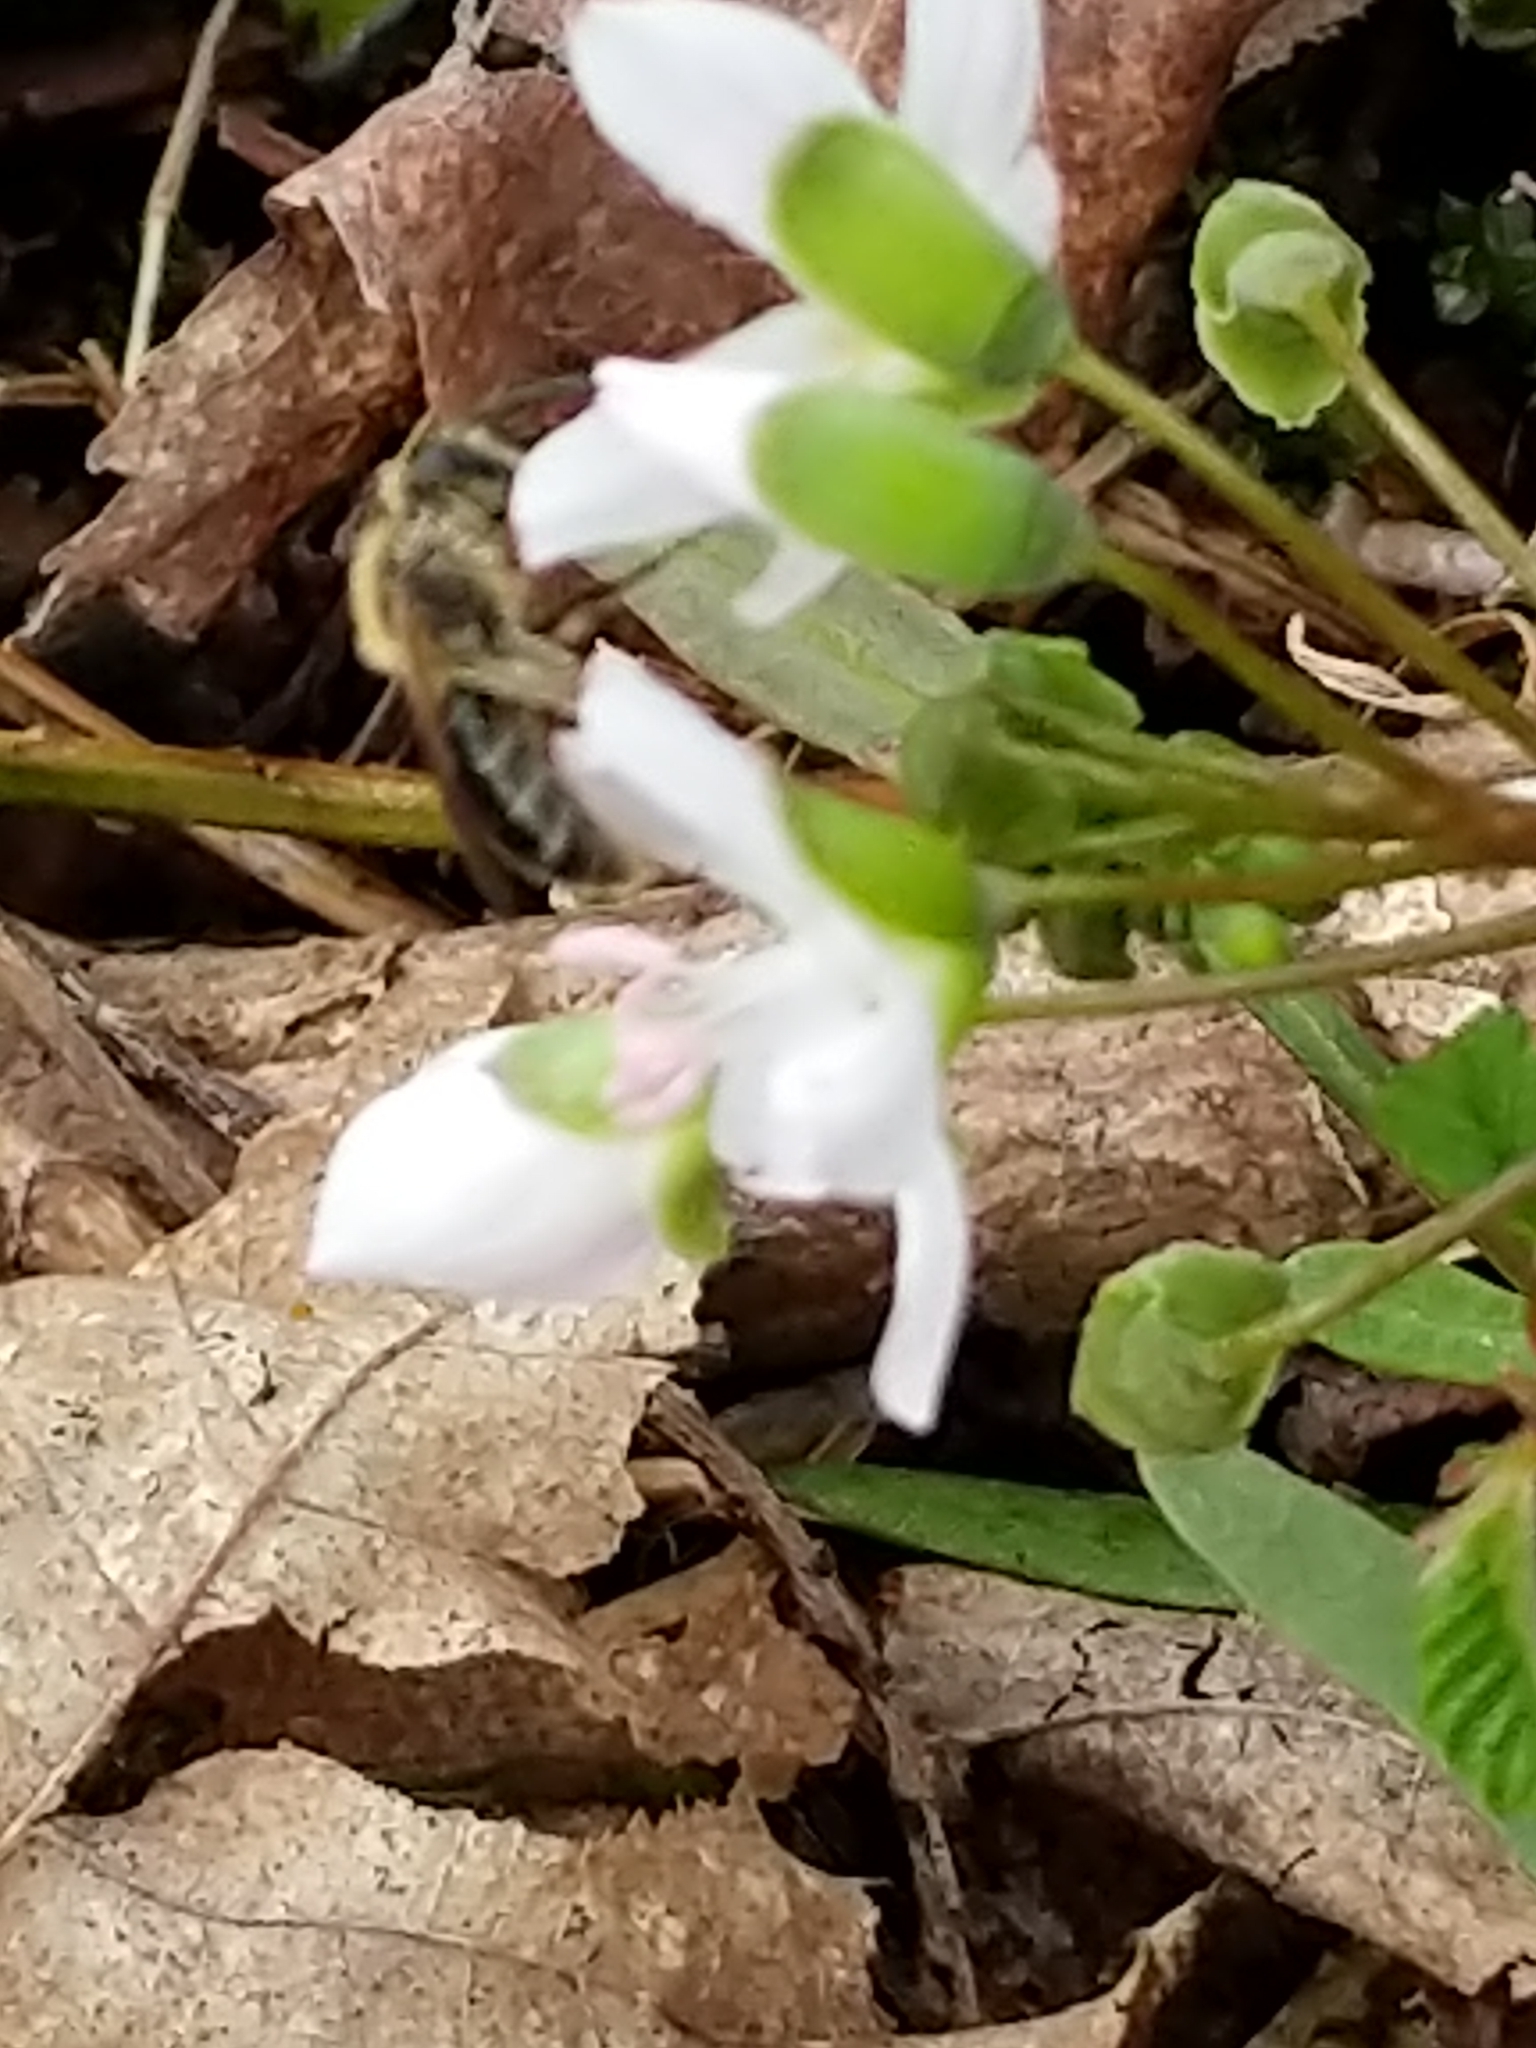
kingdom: Animalia
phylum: Arthropoda
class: Insecta
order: Hymenoptera
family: Andrenidae
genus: Andrena
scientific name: Andrena
